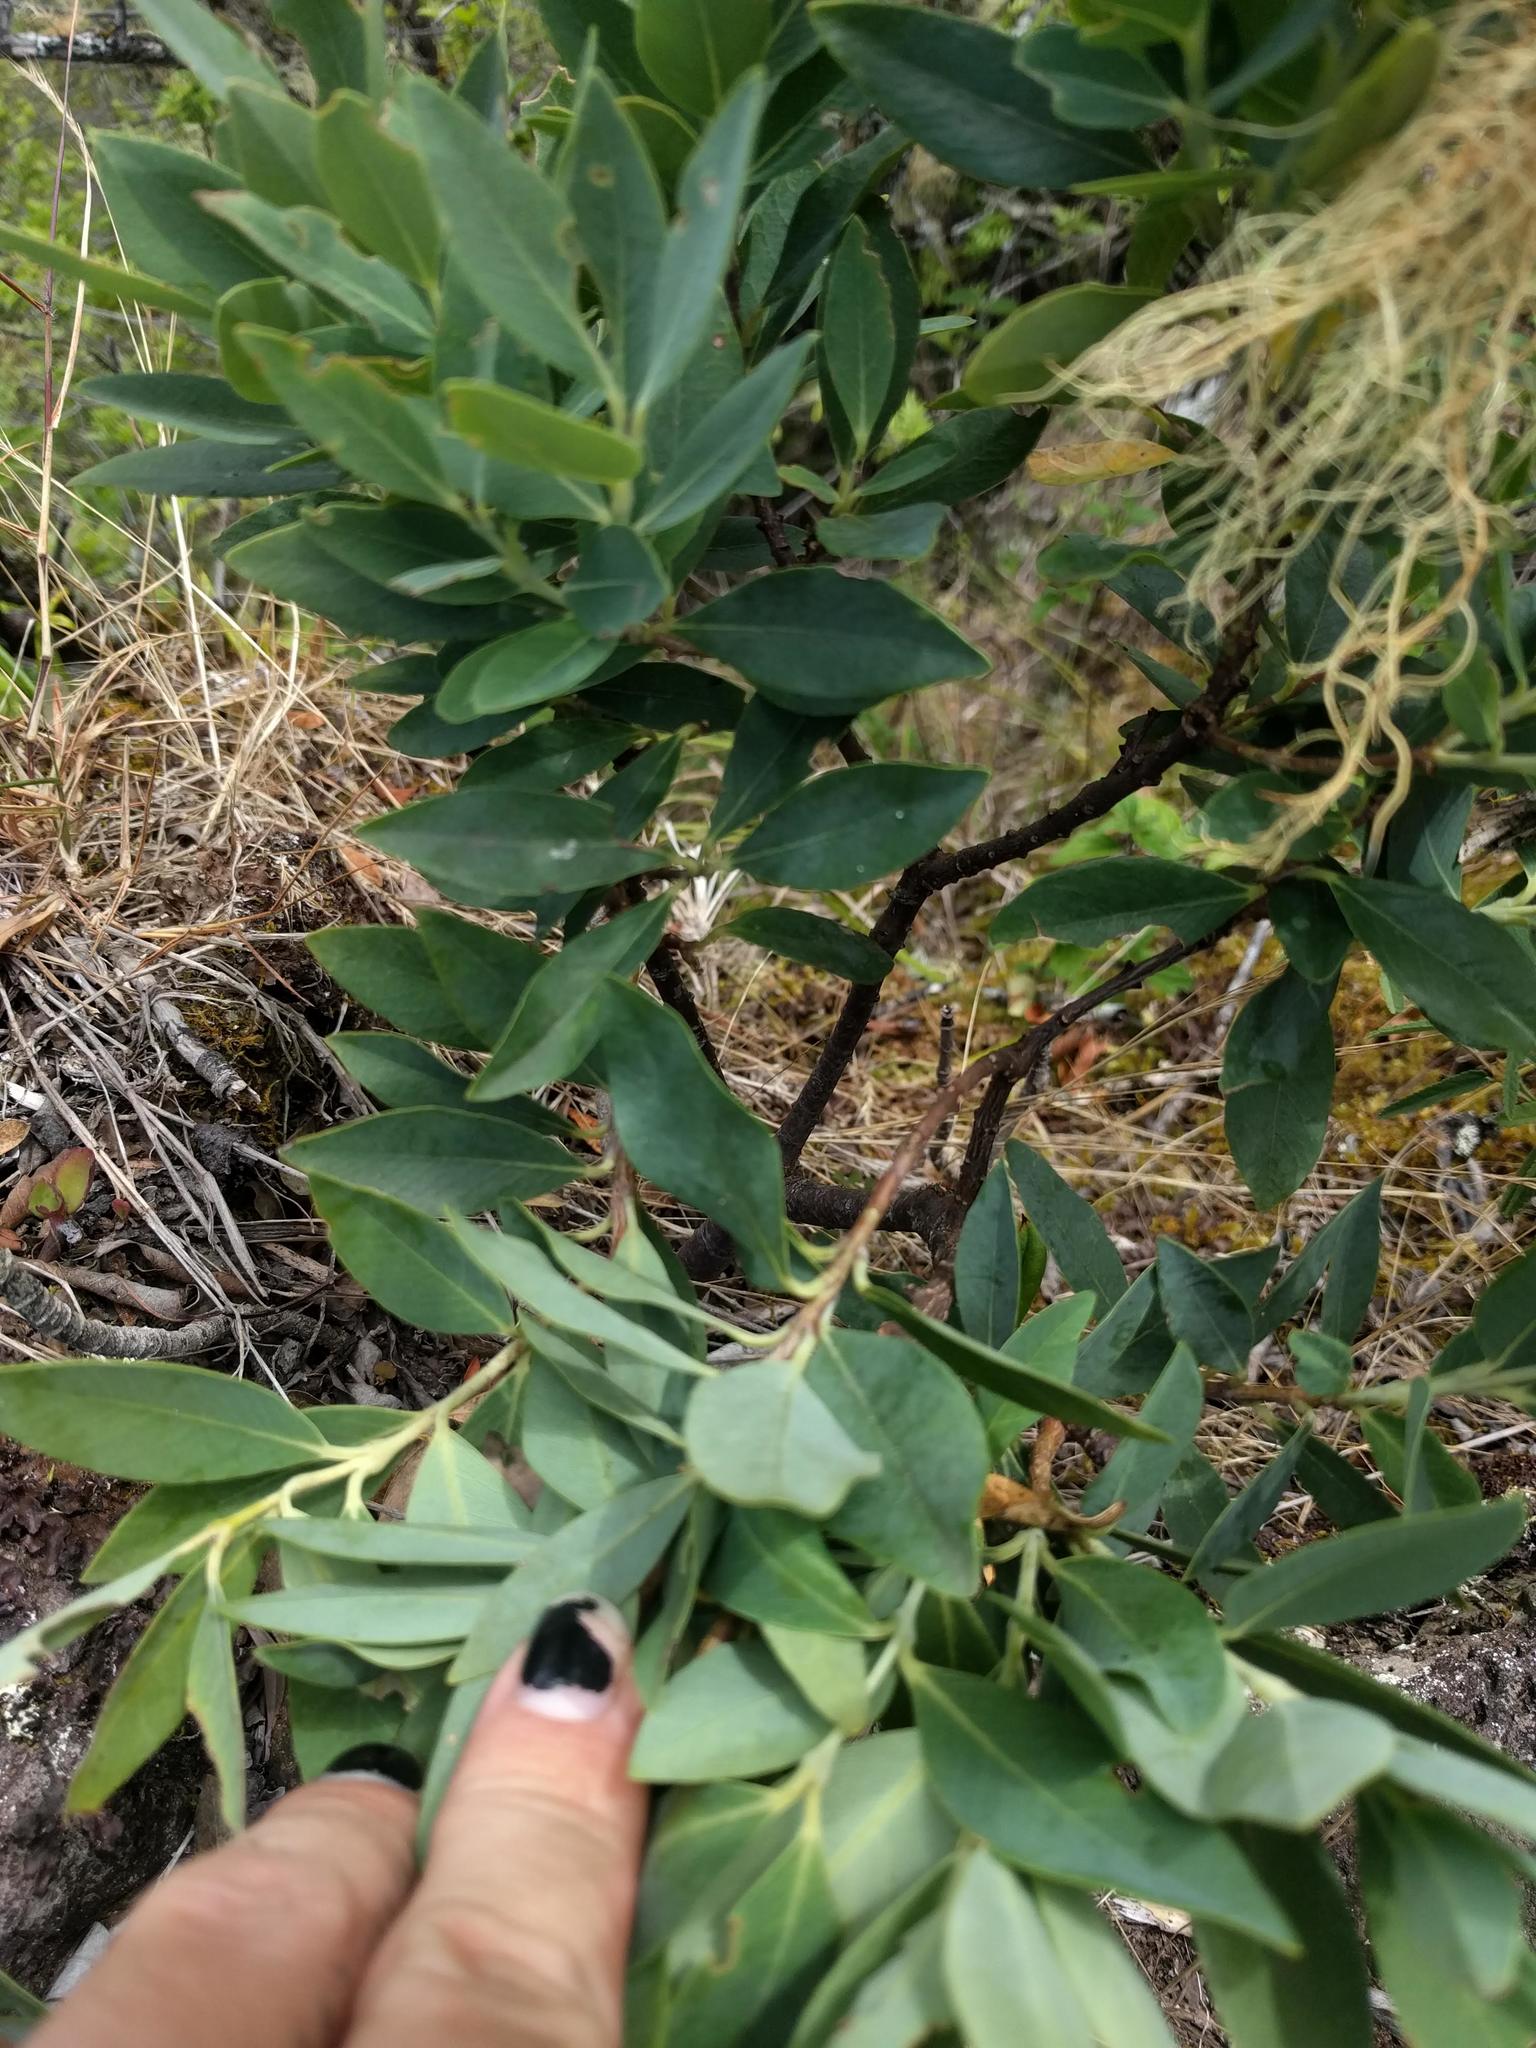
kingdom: Plantae
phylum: Tracheophyta
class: Magnoliopsida
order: Malvales
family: Thymelaeaceae
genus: Wikstroemia
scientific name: Wikstroemia oahuensis
